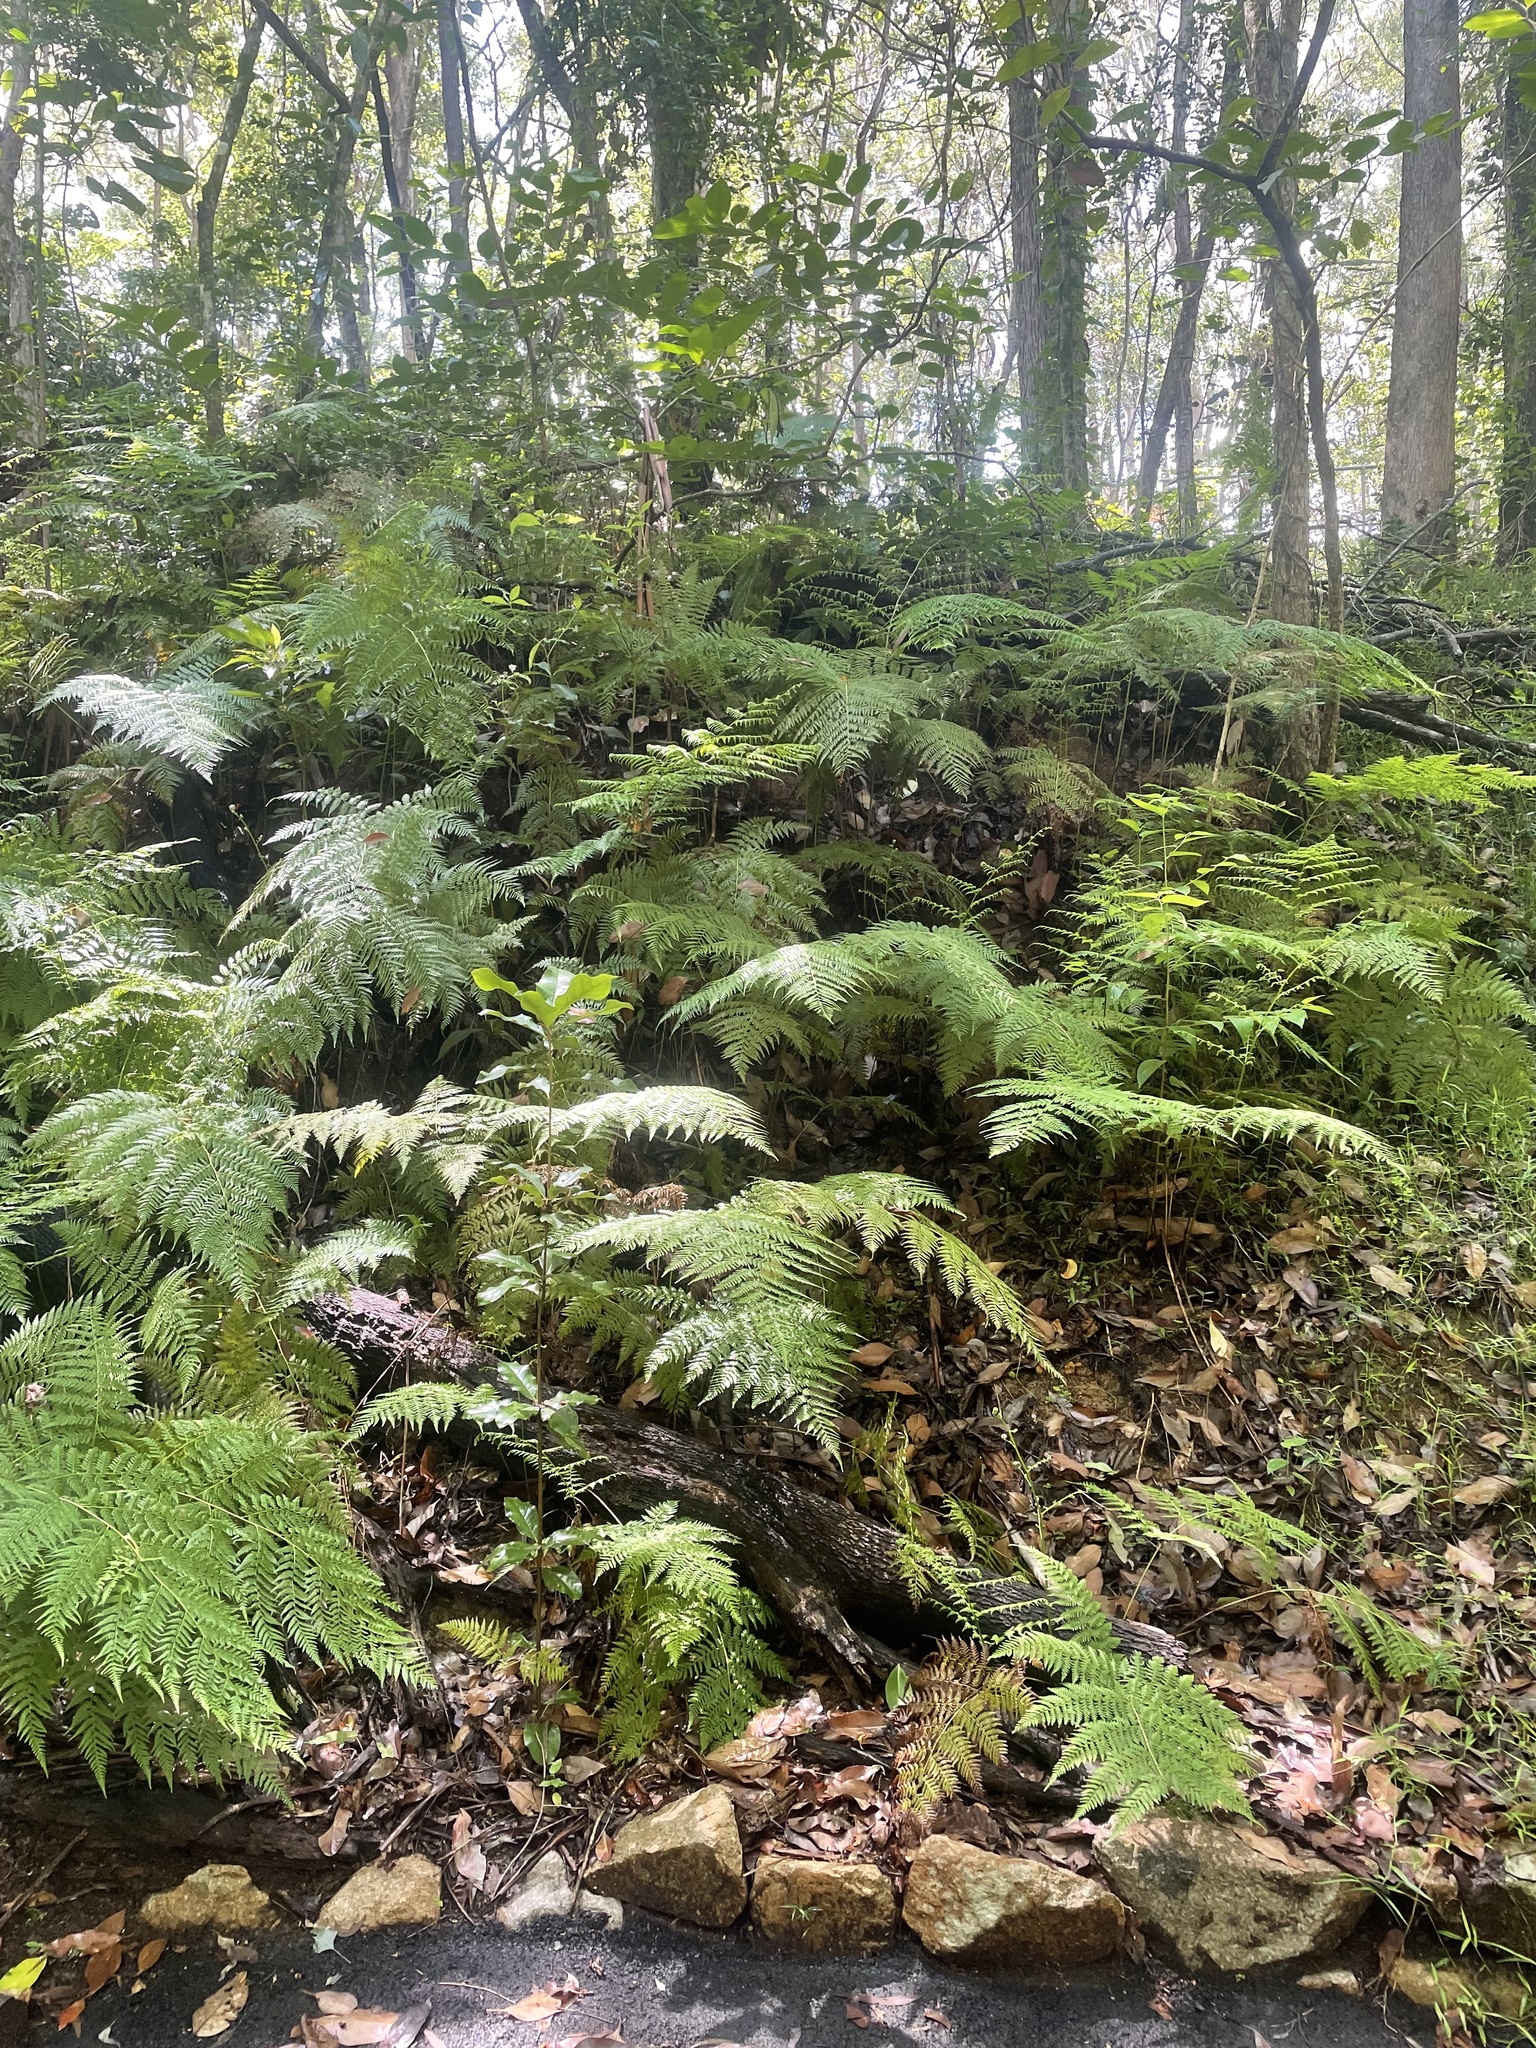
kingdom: Plantae
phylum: Tracheophyta
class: Polypodiopsida
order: Cyatheales
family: Dicksoniaceae
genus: Calochlaena
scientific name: Calochlaena dubia
